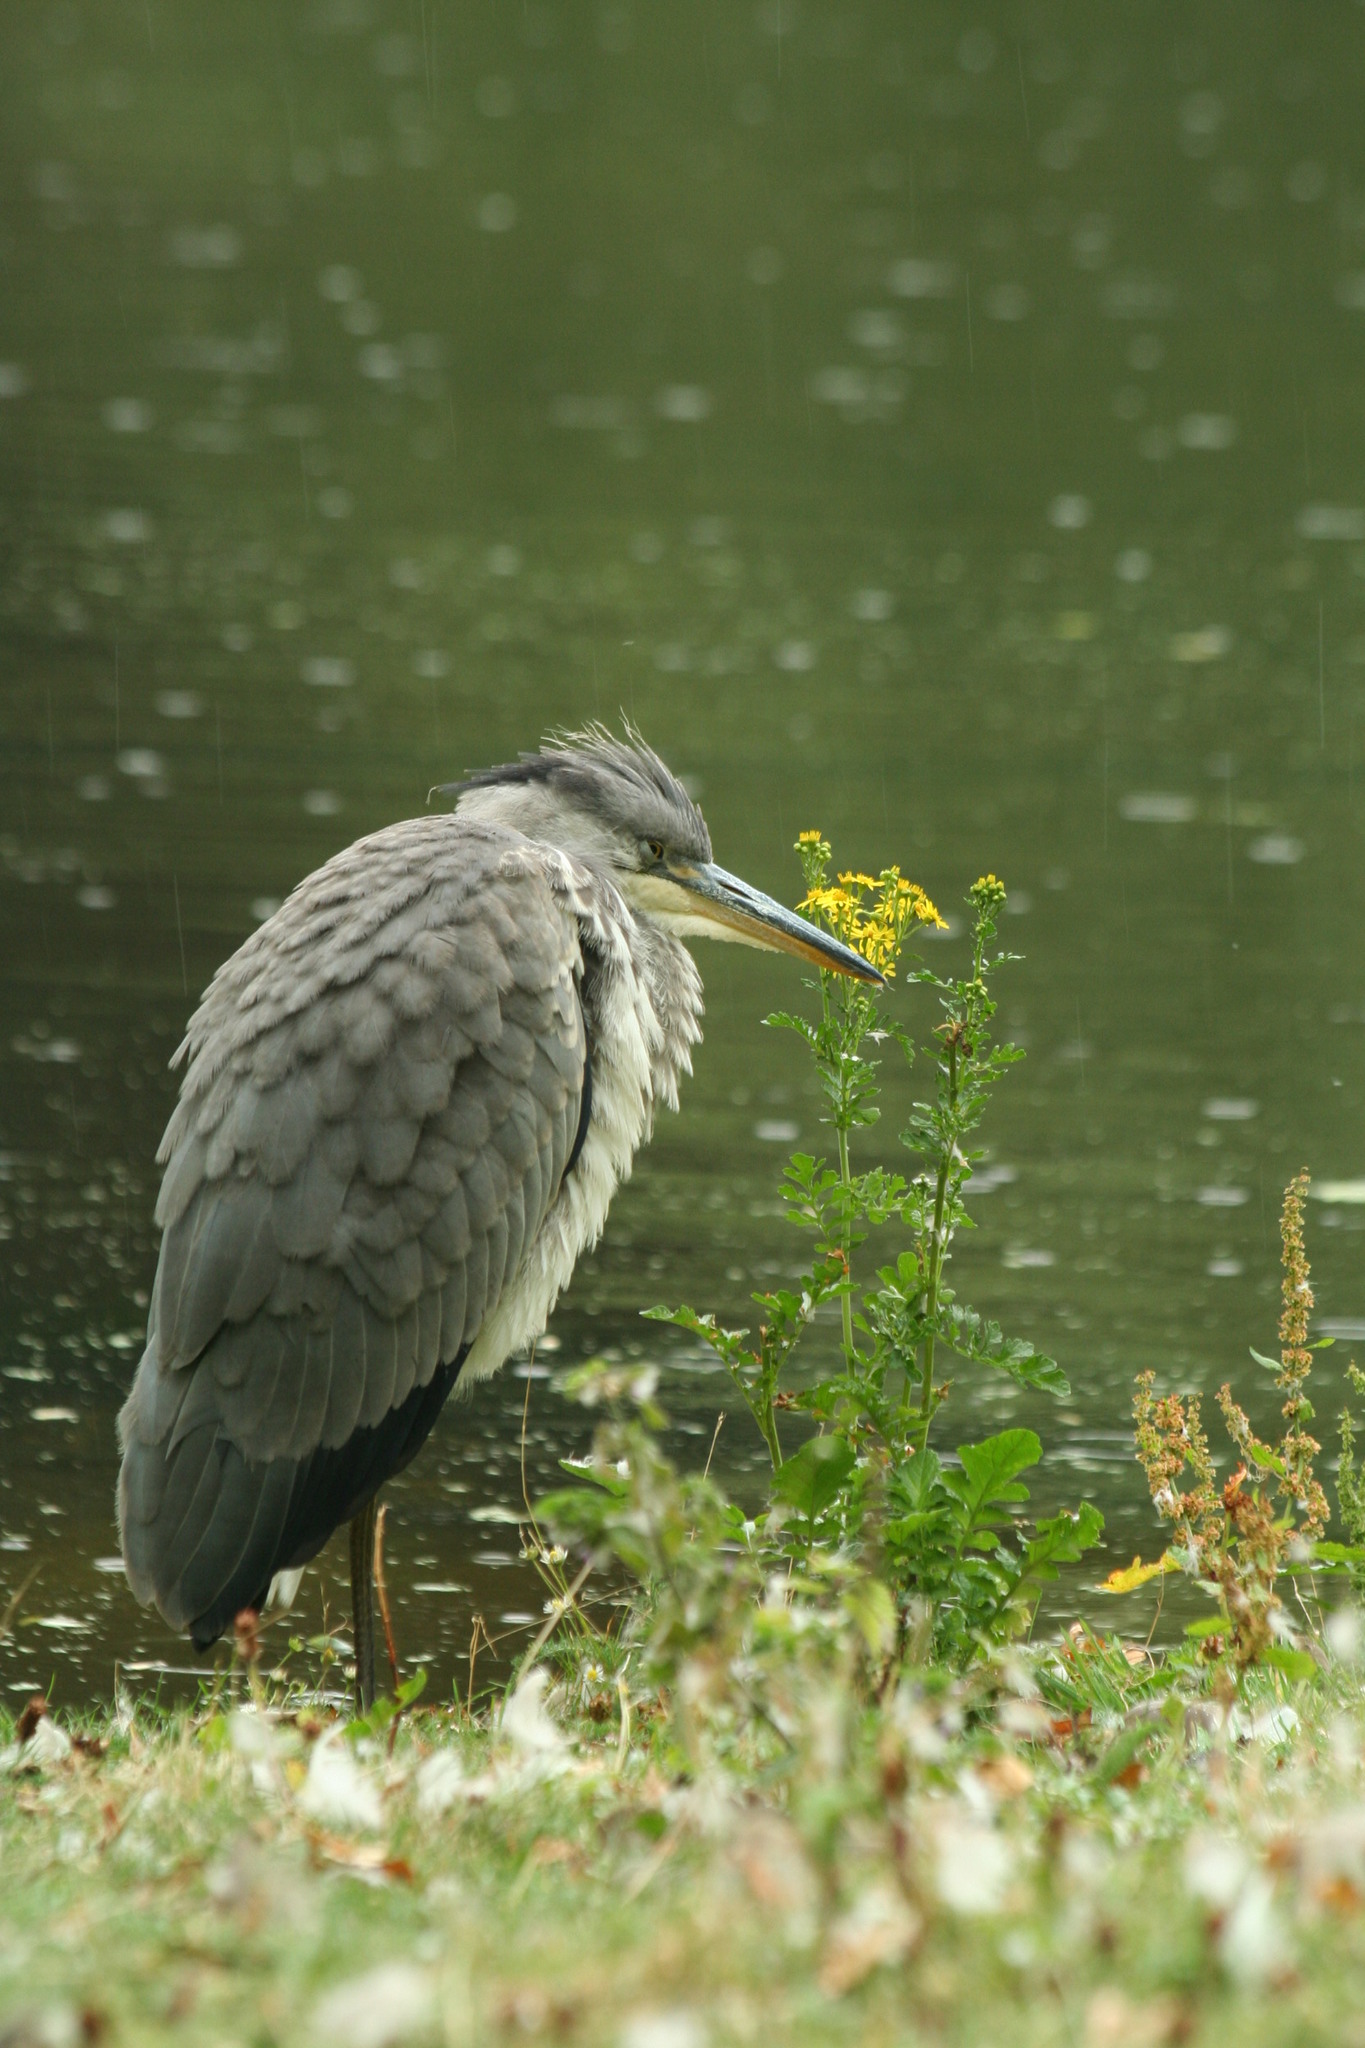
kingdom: Animalia
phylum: Chordata
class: Aves
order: Pelecaniformes
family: Ardeidae
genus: Ardea
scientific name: Ardea cinerea
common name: Grey heron
